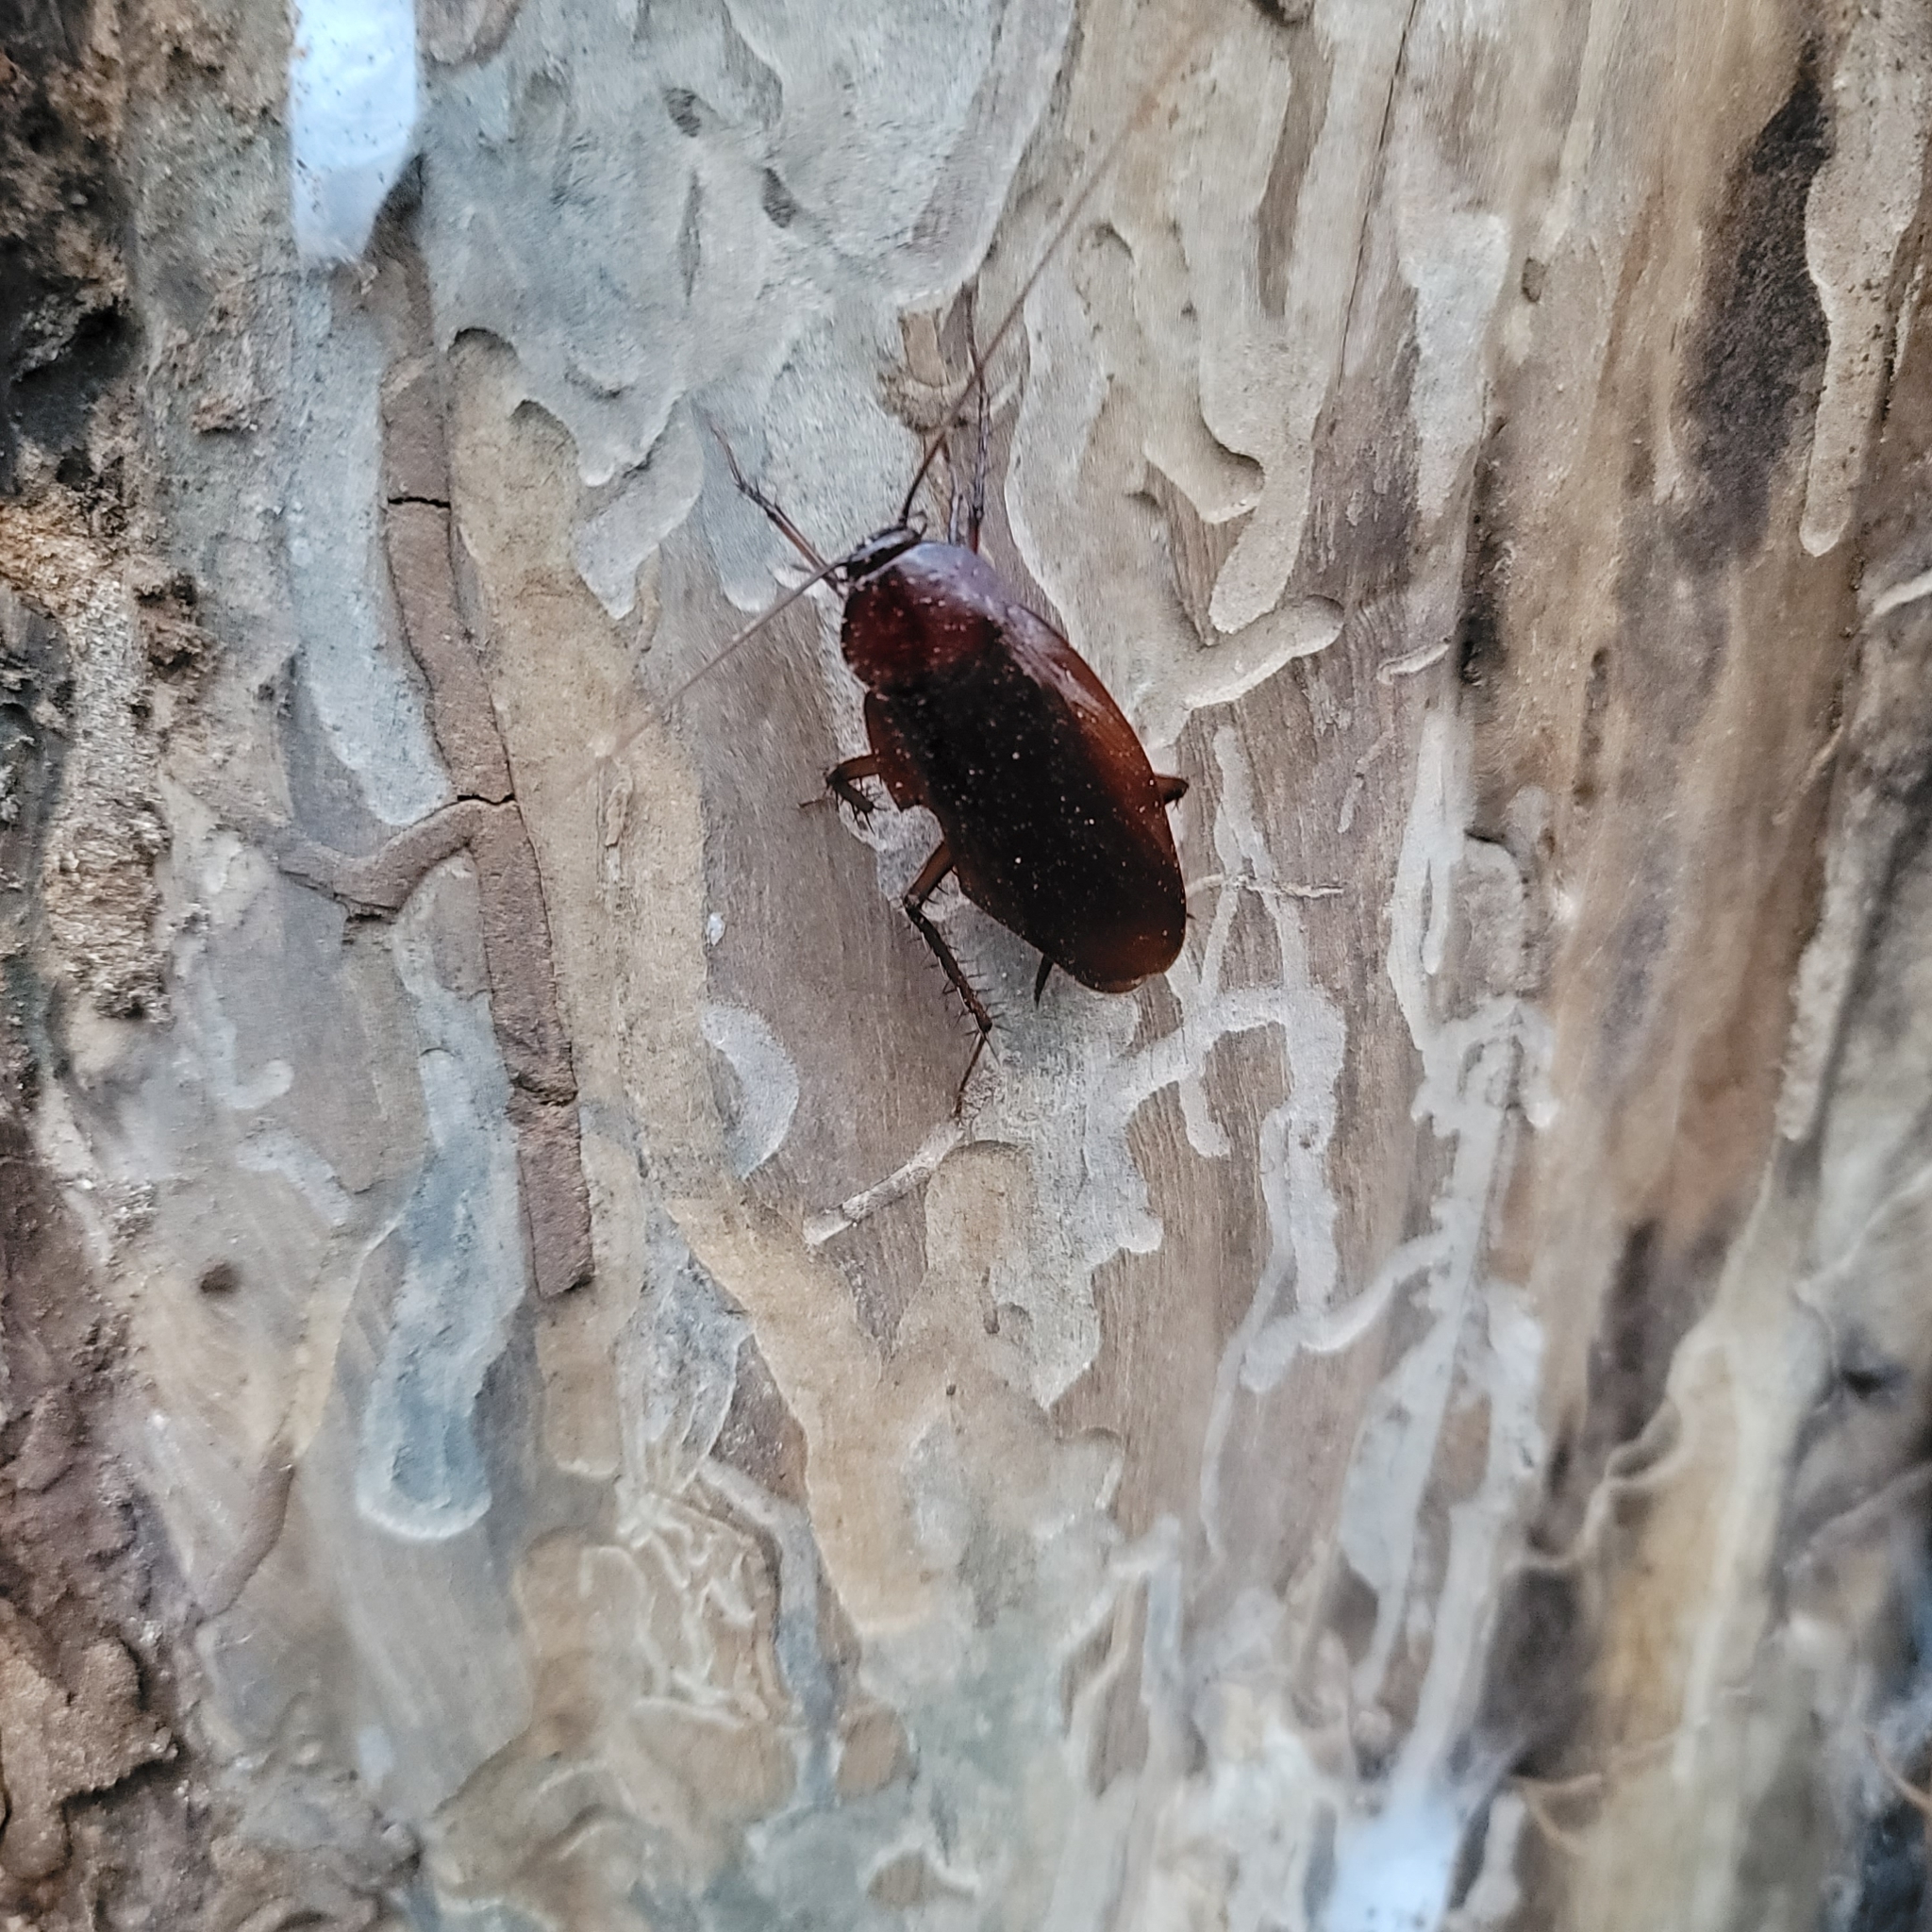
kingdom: Animalia
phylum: Arthropoda
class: Insecta
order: Blattodea
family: Blattidae
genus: Periplaneta
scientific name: Periplaneta fuliginosa
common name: Smokeybrown cockroad
